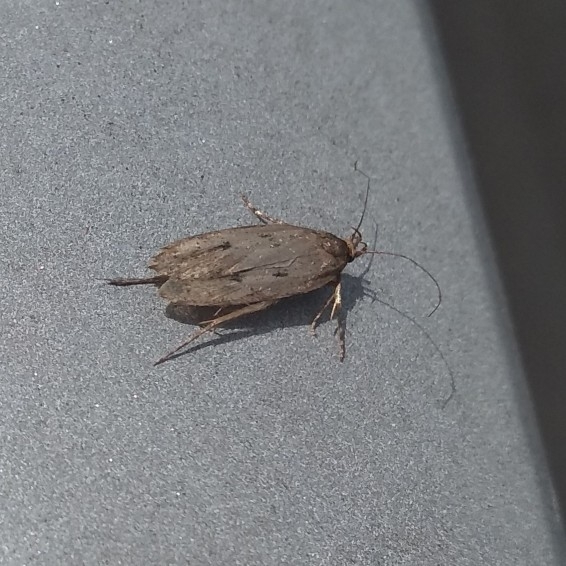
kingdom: Animalia
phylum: Arthropoda
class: Insecta
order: Lepidoptera
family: Oecophoridae
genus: Hofmannophila
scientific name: Hofmannophila pseudospretella
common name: Brown house moth
